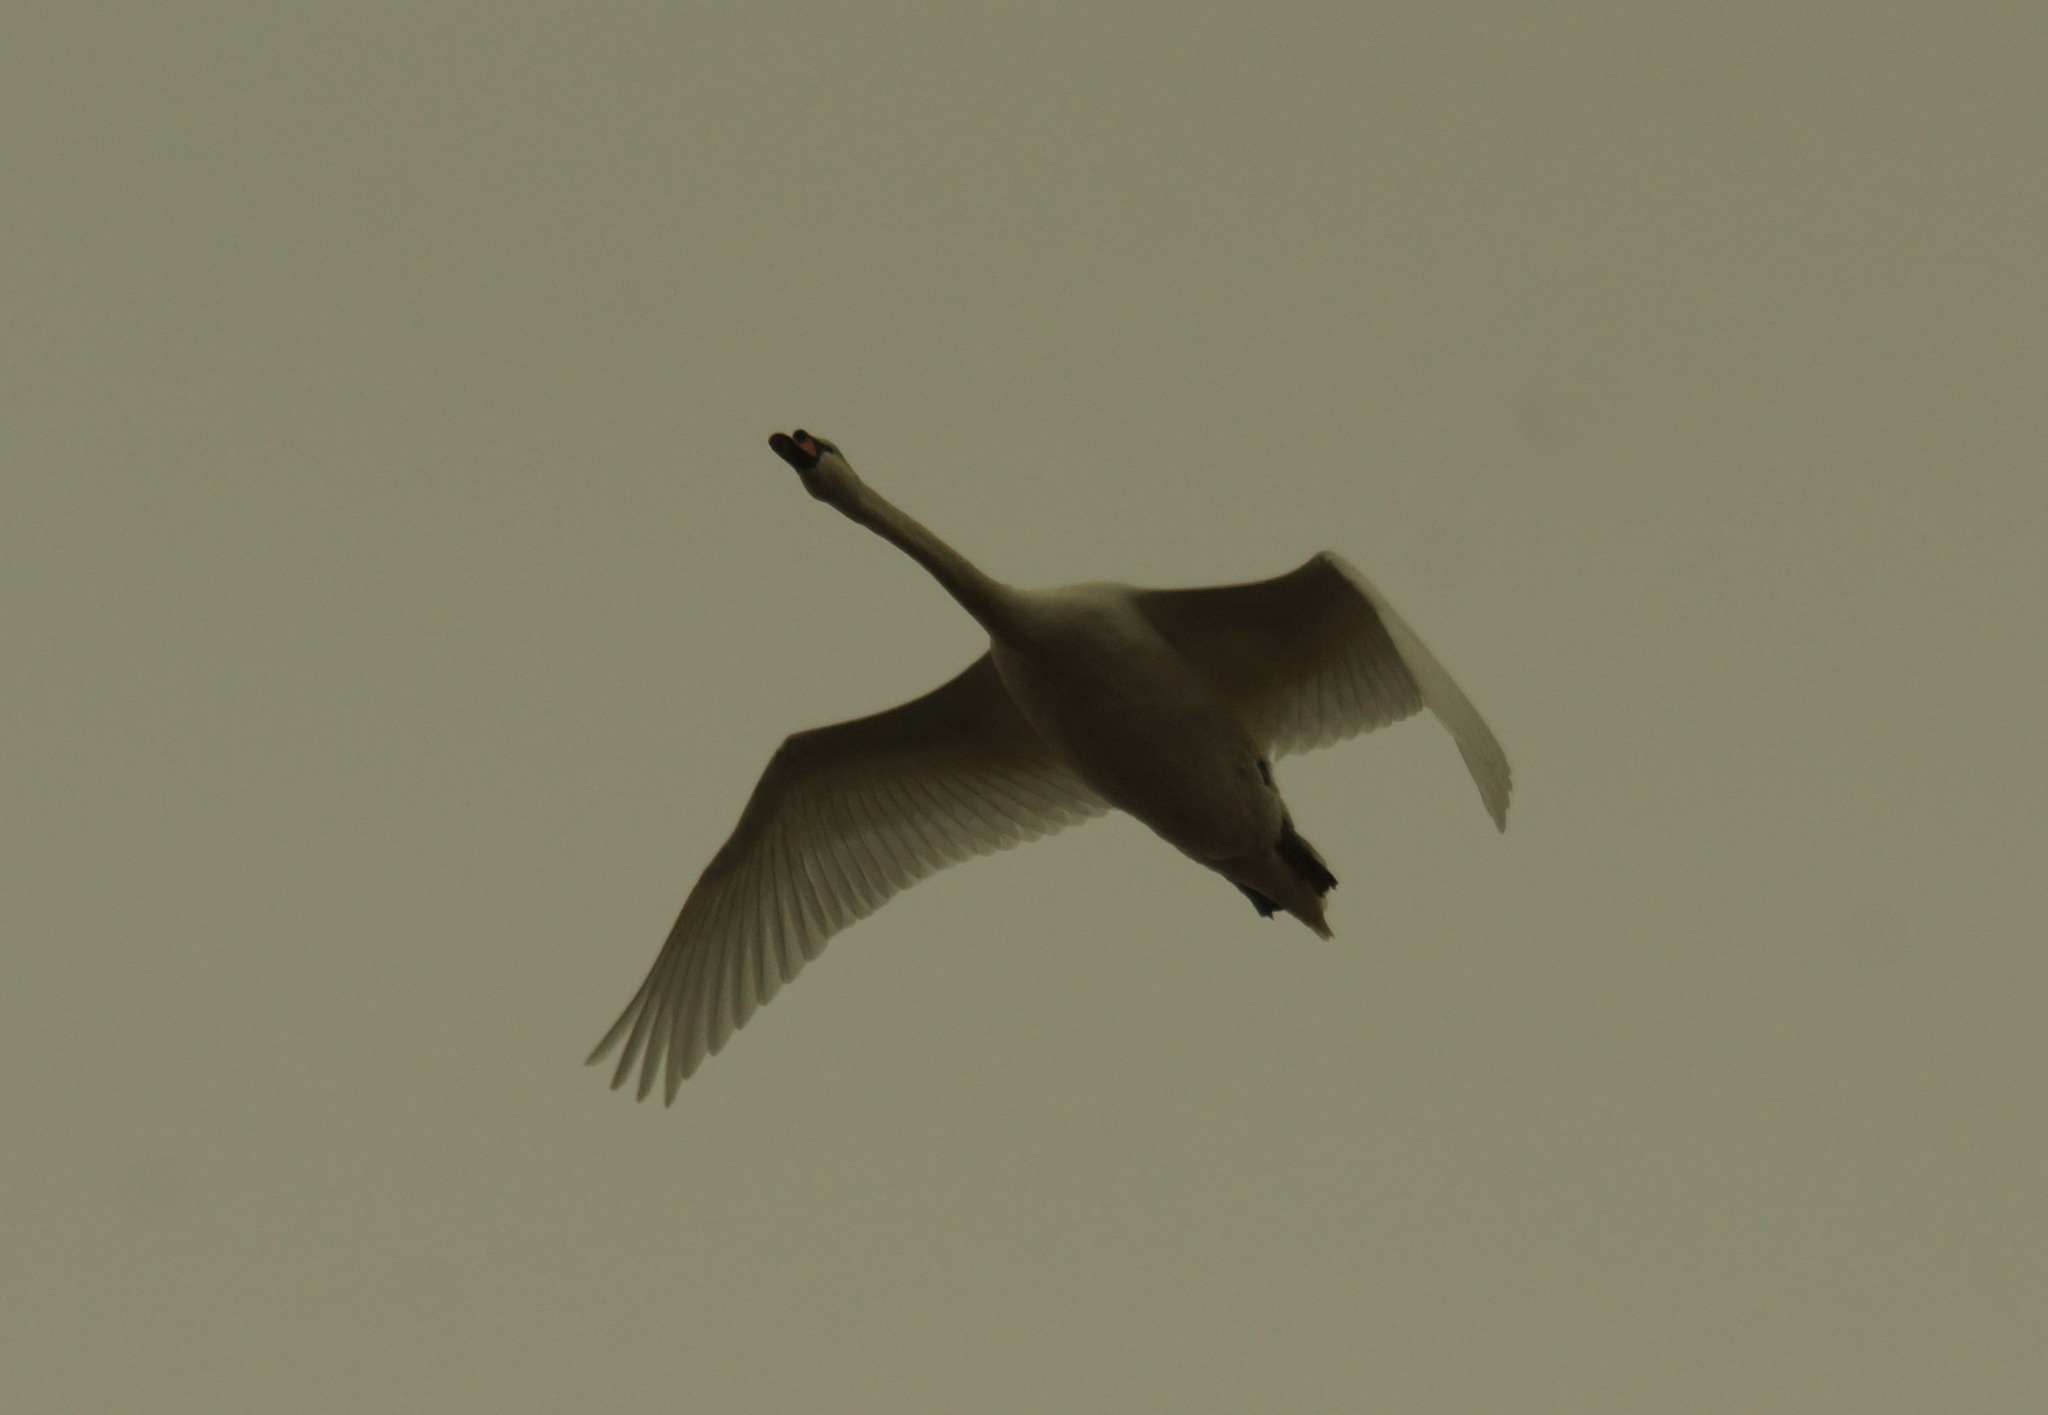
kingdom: Animalia
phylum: Chordata
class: Aves
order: Anseriformes
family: Anatidae
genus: Cygnus
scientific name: Cygnus olor
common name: Mute swan
